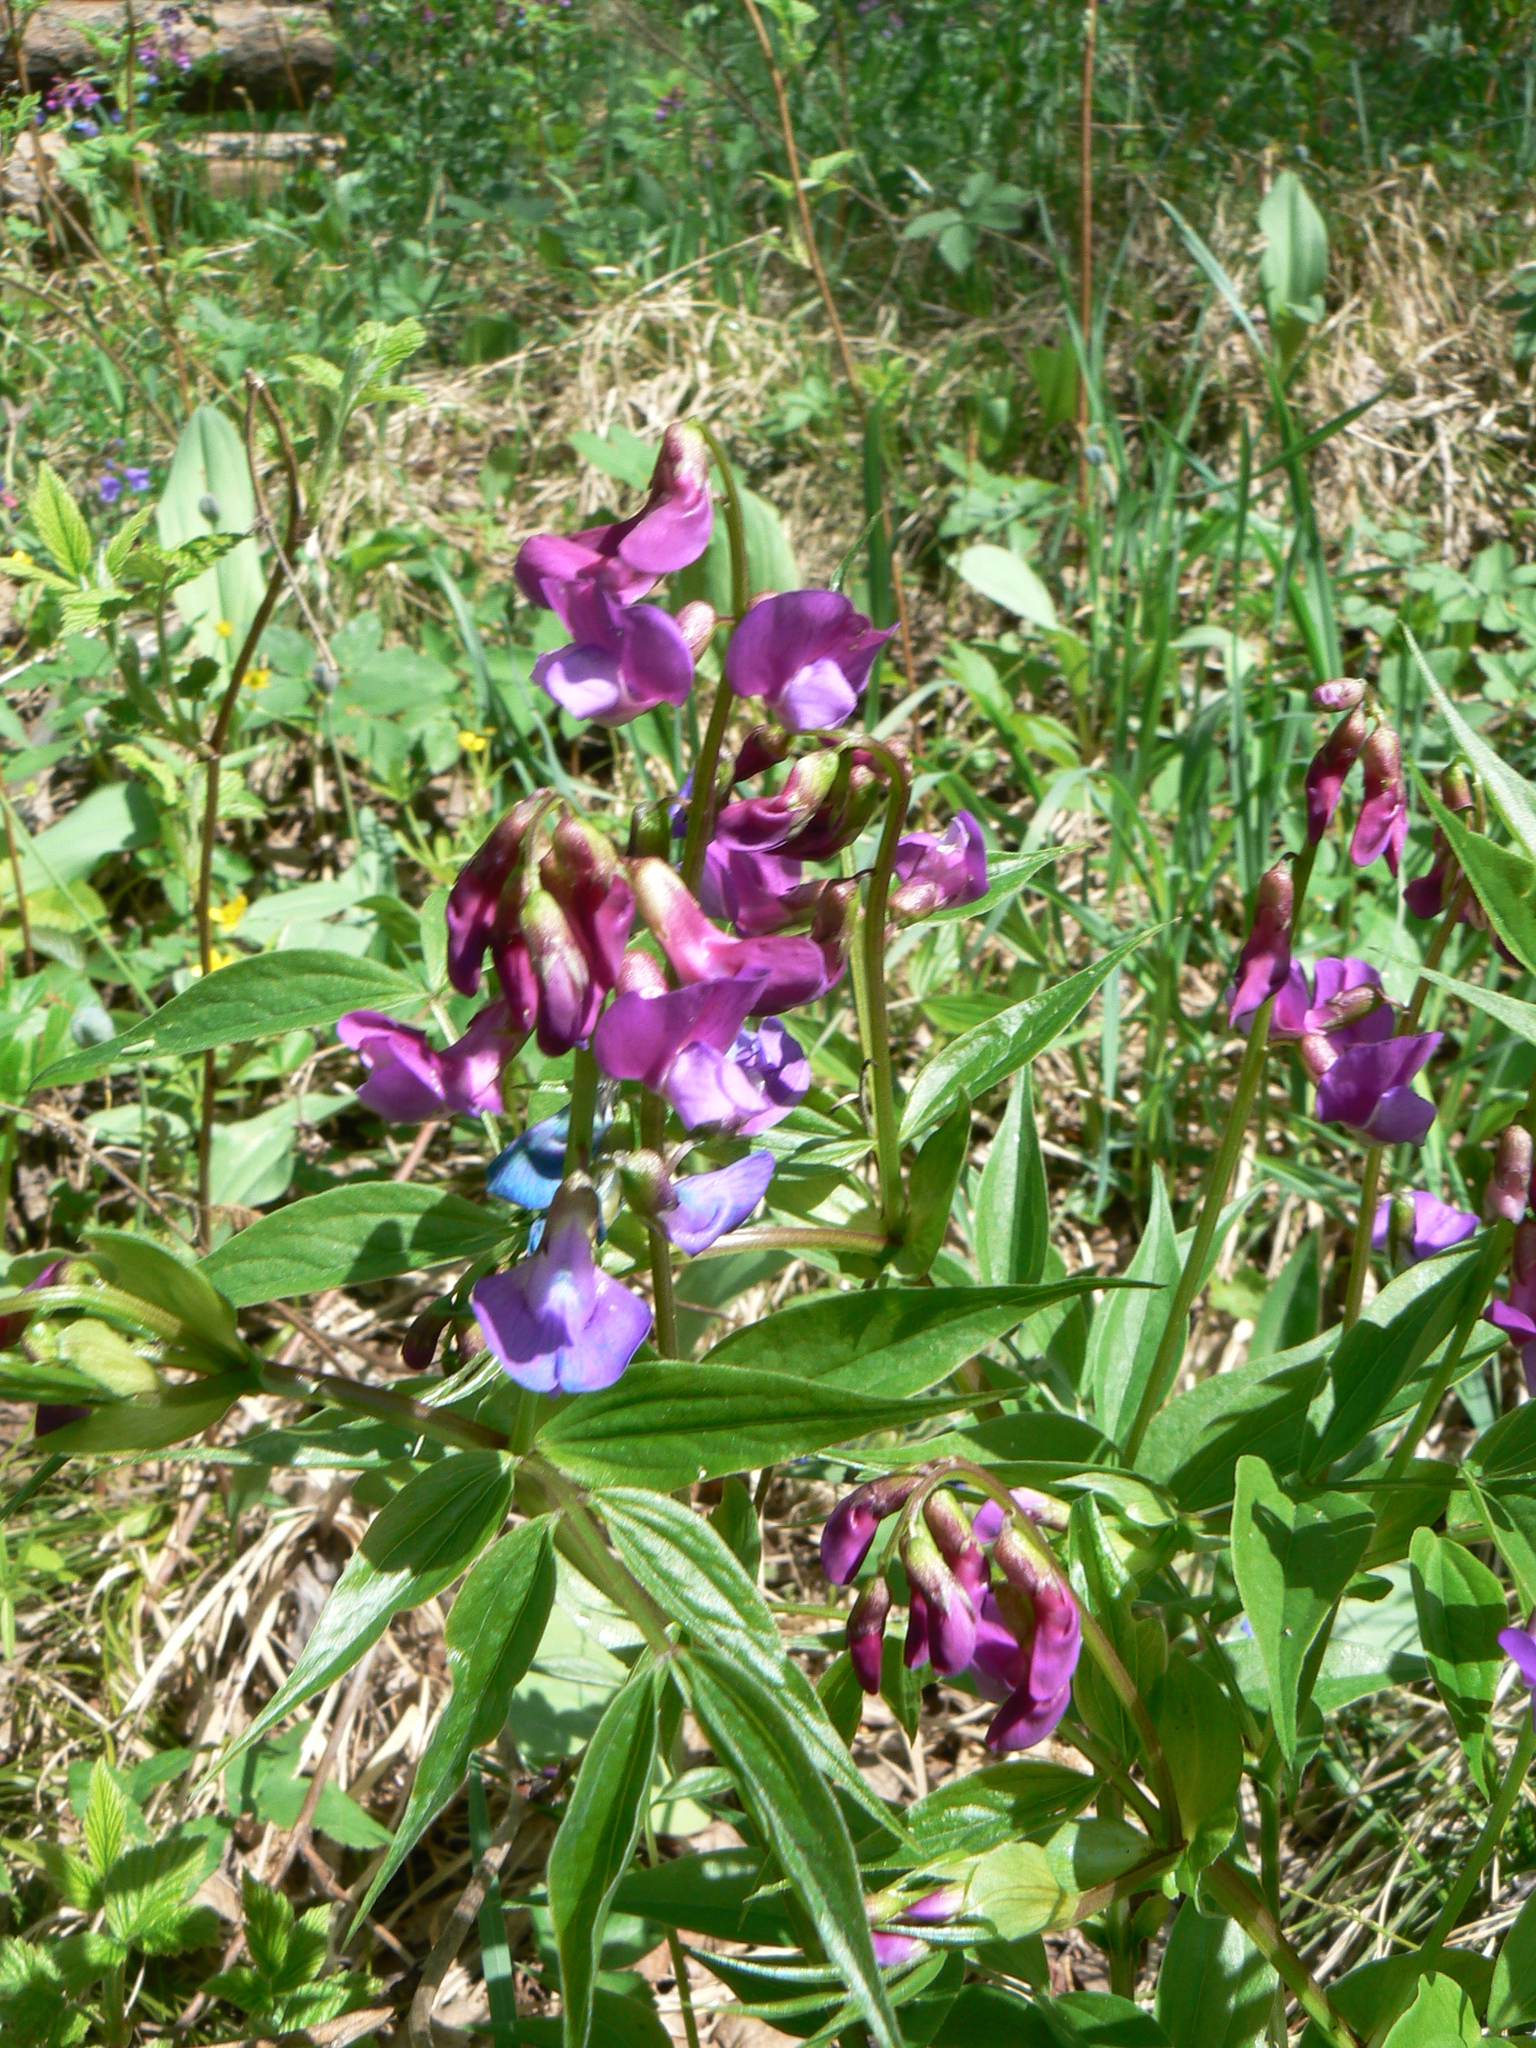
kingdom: Plantae
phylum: Tracheophyta
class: Magnoliopsida
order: Fabales
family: Fabaceae
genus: Lathyrus
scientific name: Lathyrus vernus
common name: Spring pea
